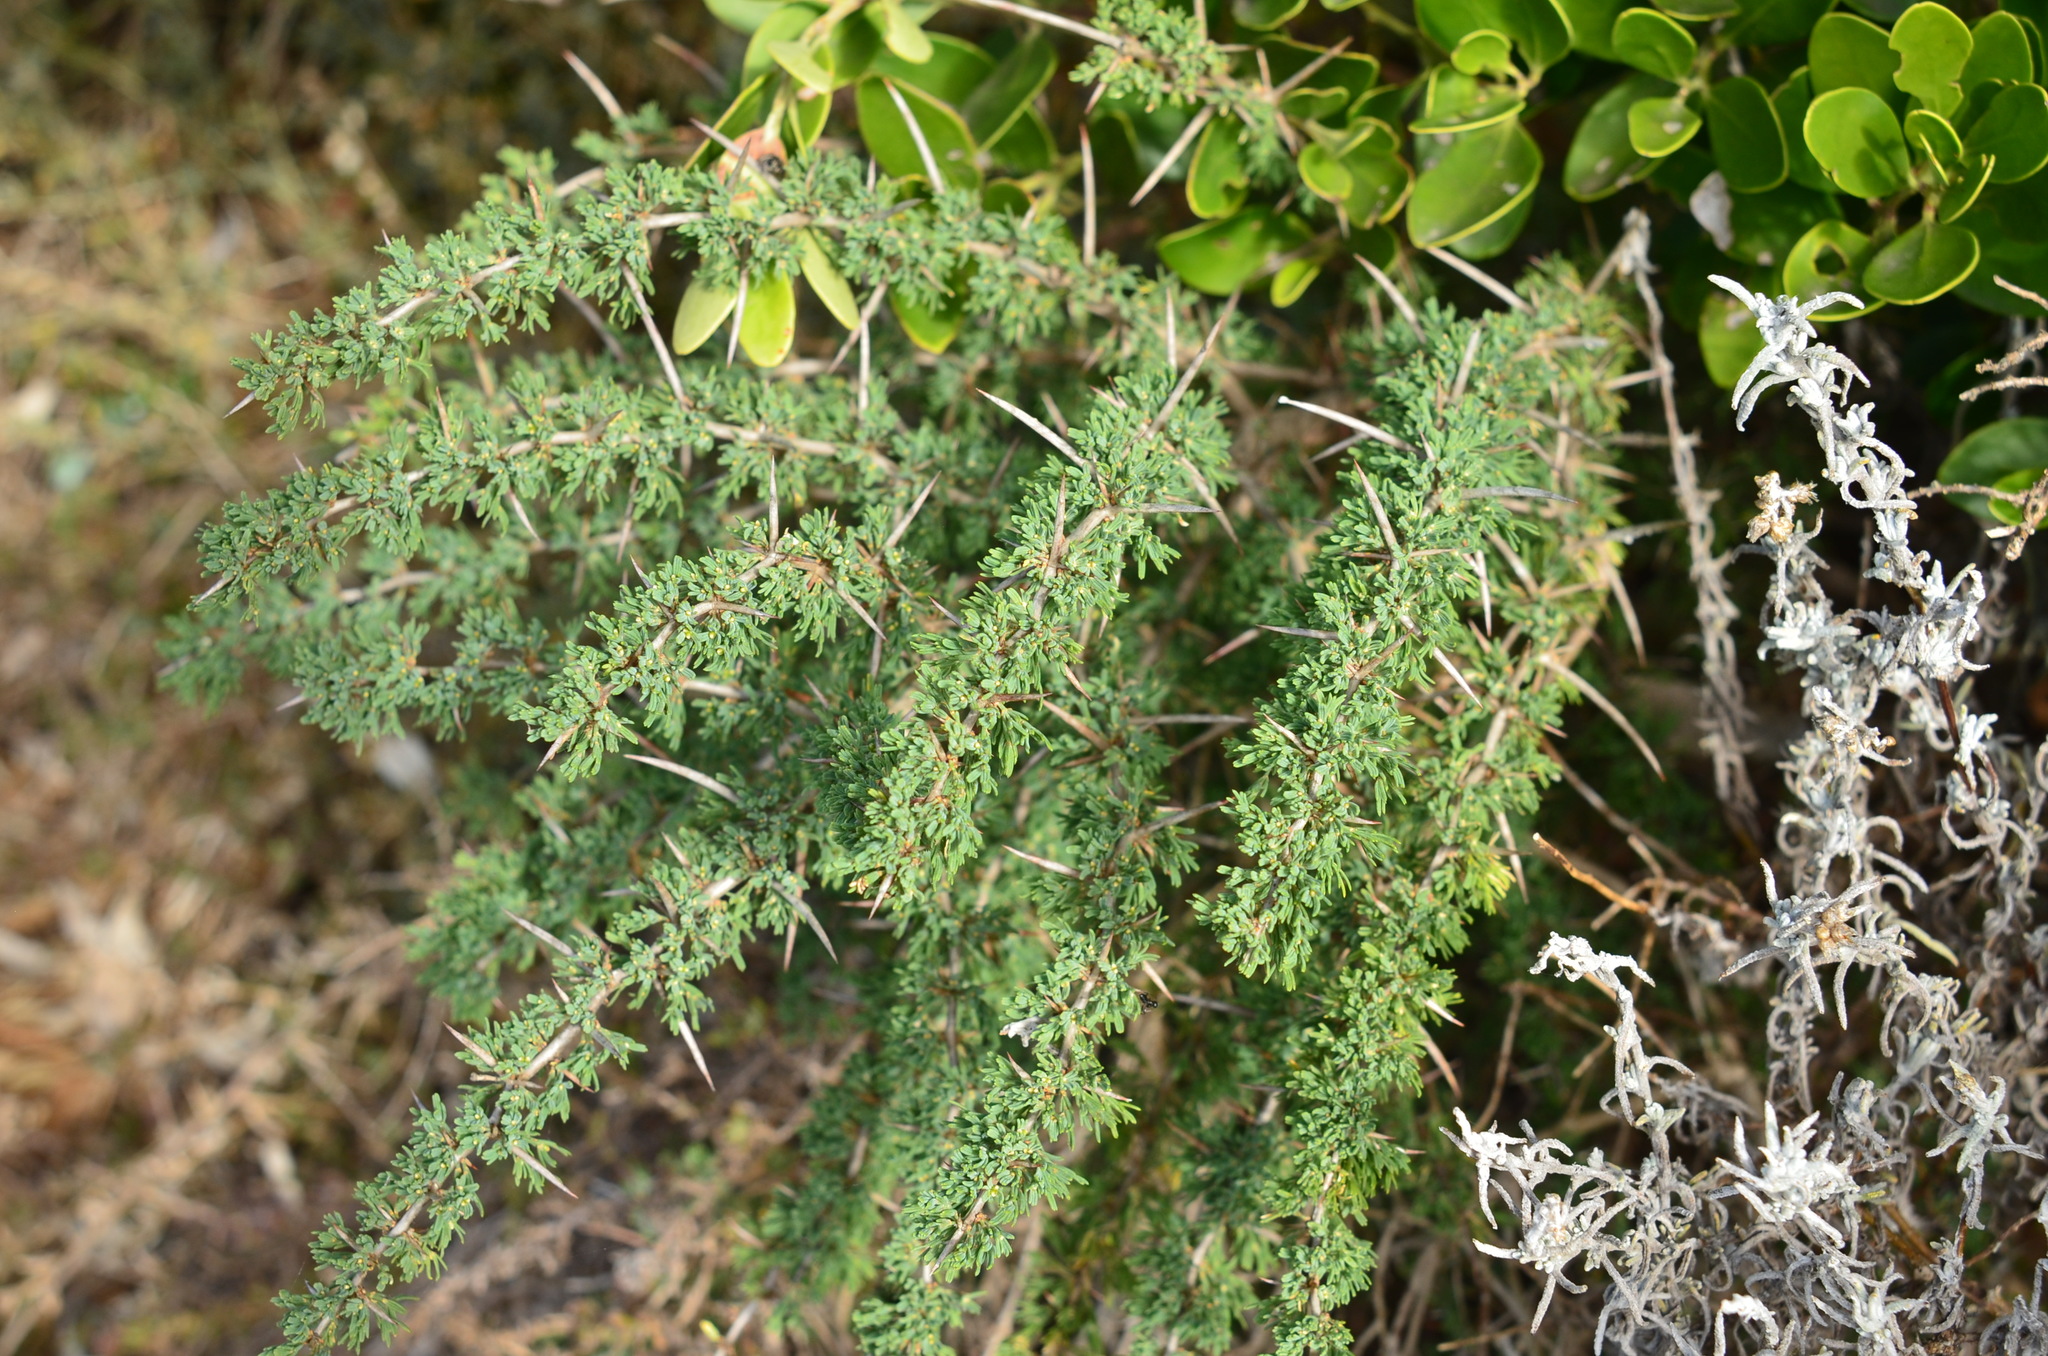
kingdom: Plantae
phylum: Tracheophyta
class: Liliopsida
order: Asparagales
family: Asparagaceae
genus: Asparagus
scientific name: Asparagus capensis
